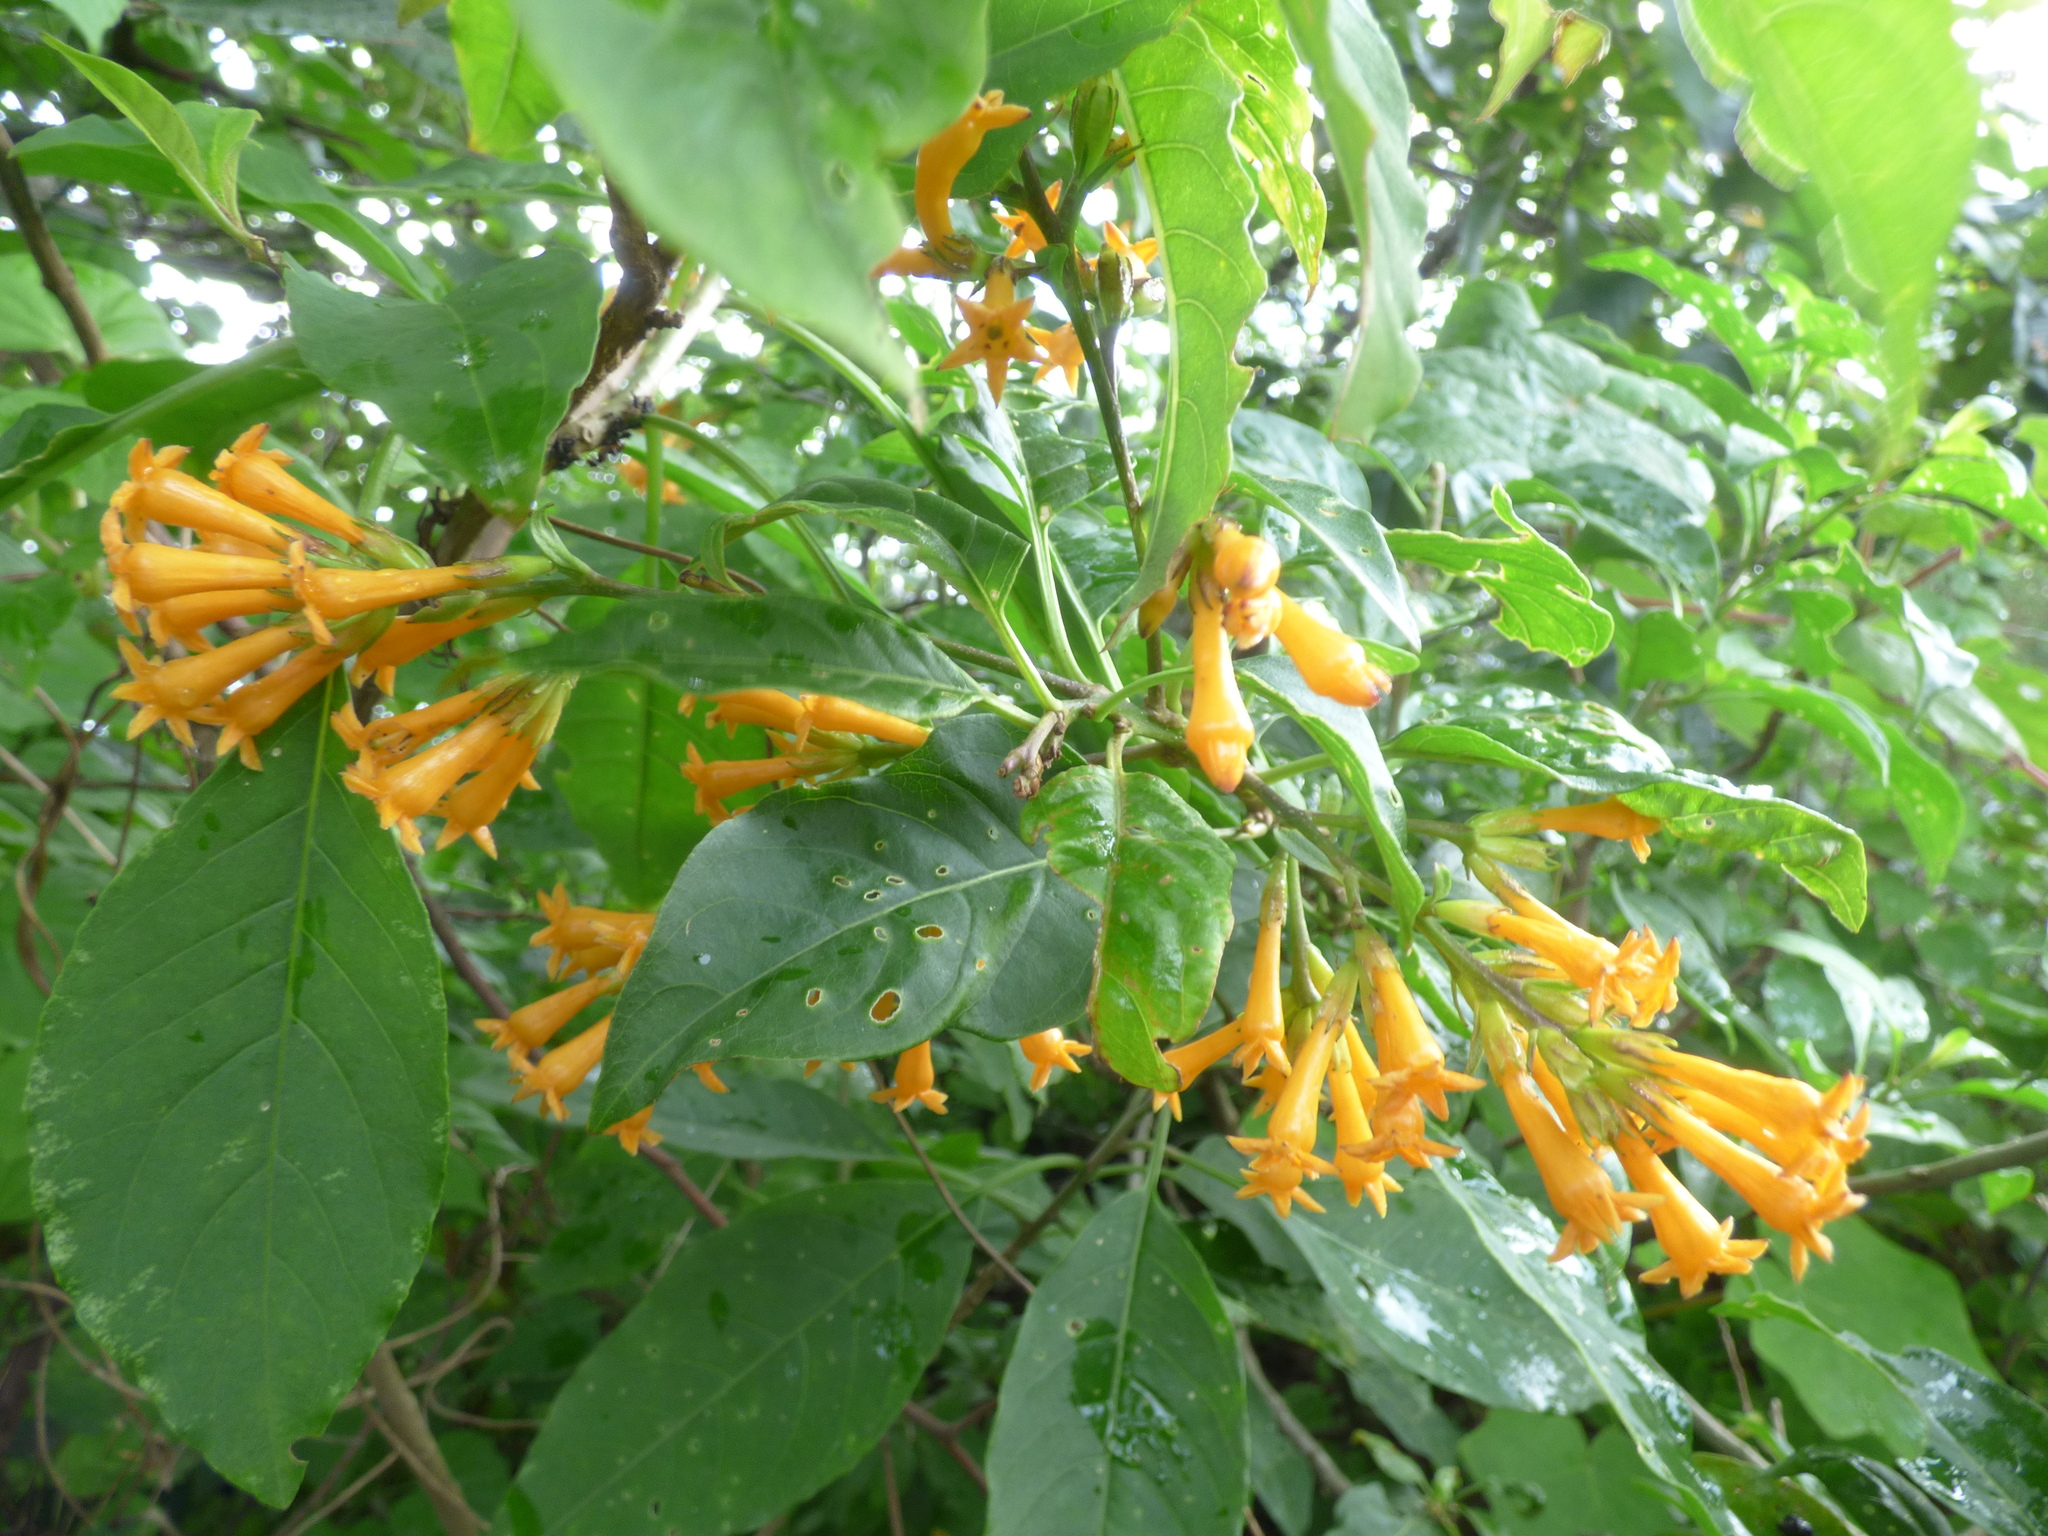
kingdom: Plantae
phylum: Tracheophyta
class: Magnoliopsida
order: Solanales
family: Solanaceae
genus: Cestrum
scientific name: Cestrum aurantiacum
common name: Orange cestrum
